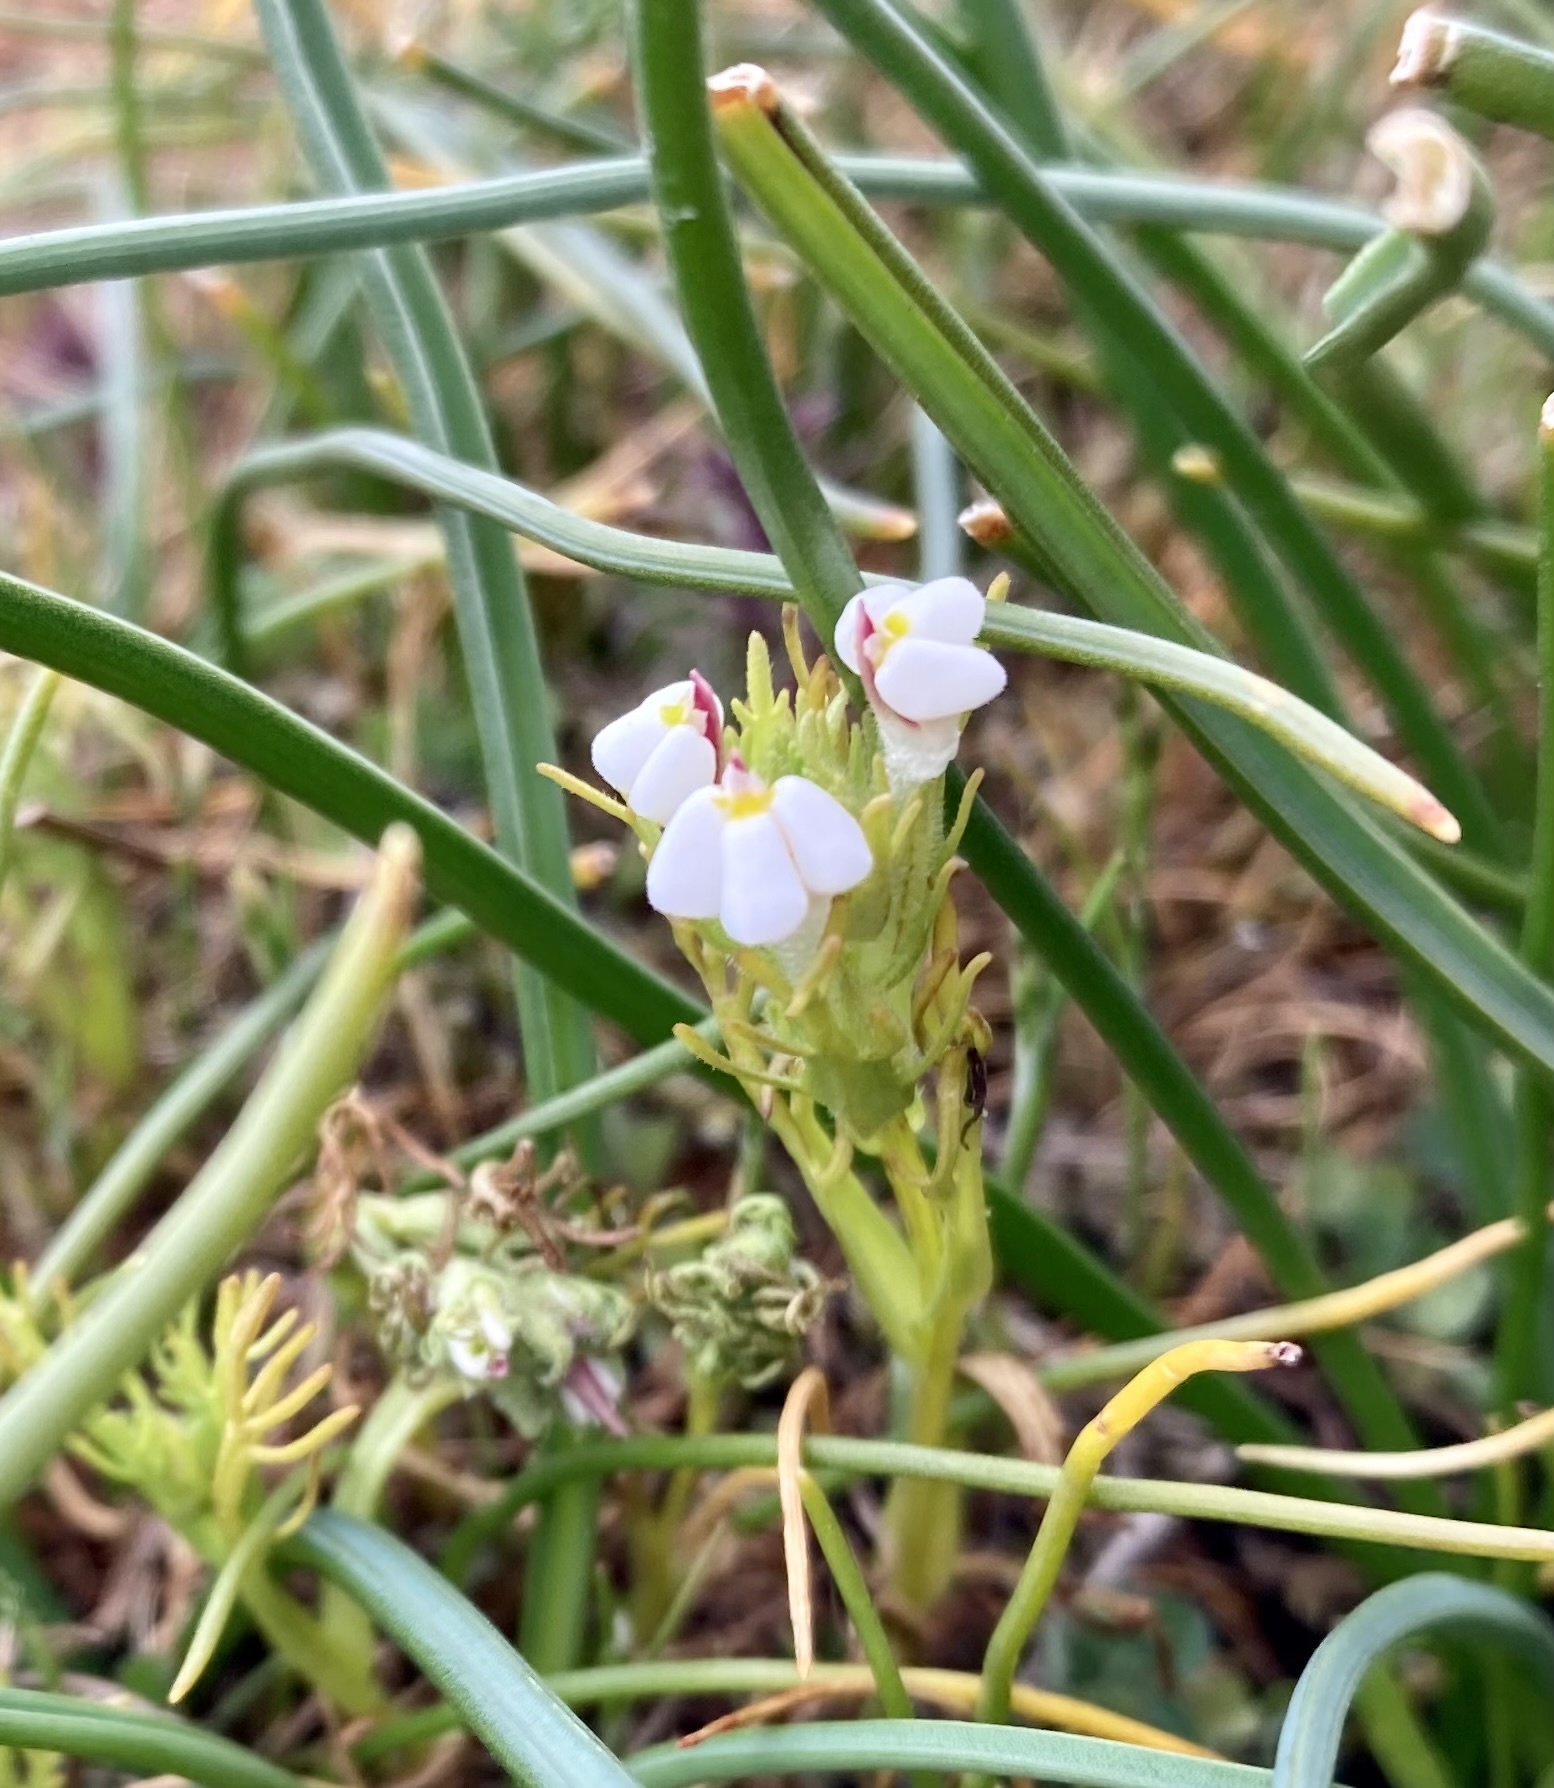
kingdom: Plantae
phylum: Tracheophyta
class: Magnoliopsida
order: Lamiales
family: Orobanchaceae
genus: Triphysaria
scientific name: Triphysaria versicolor
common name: Bearded false owl-clover
